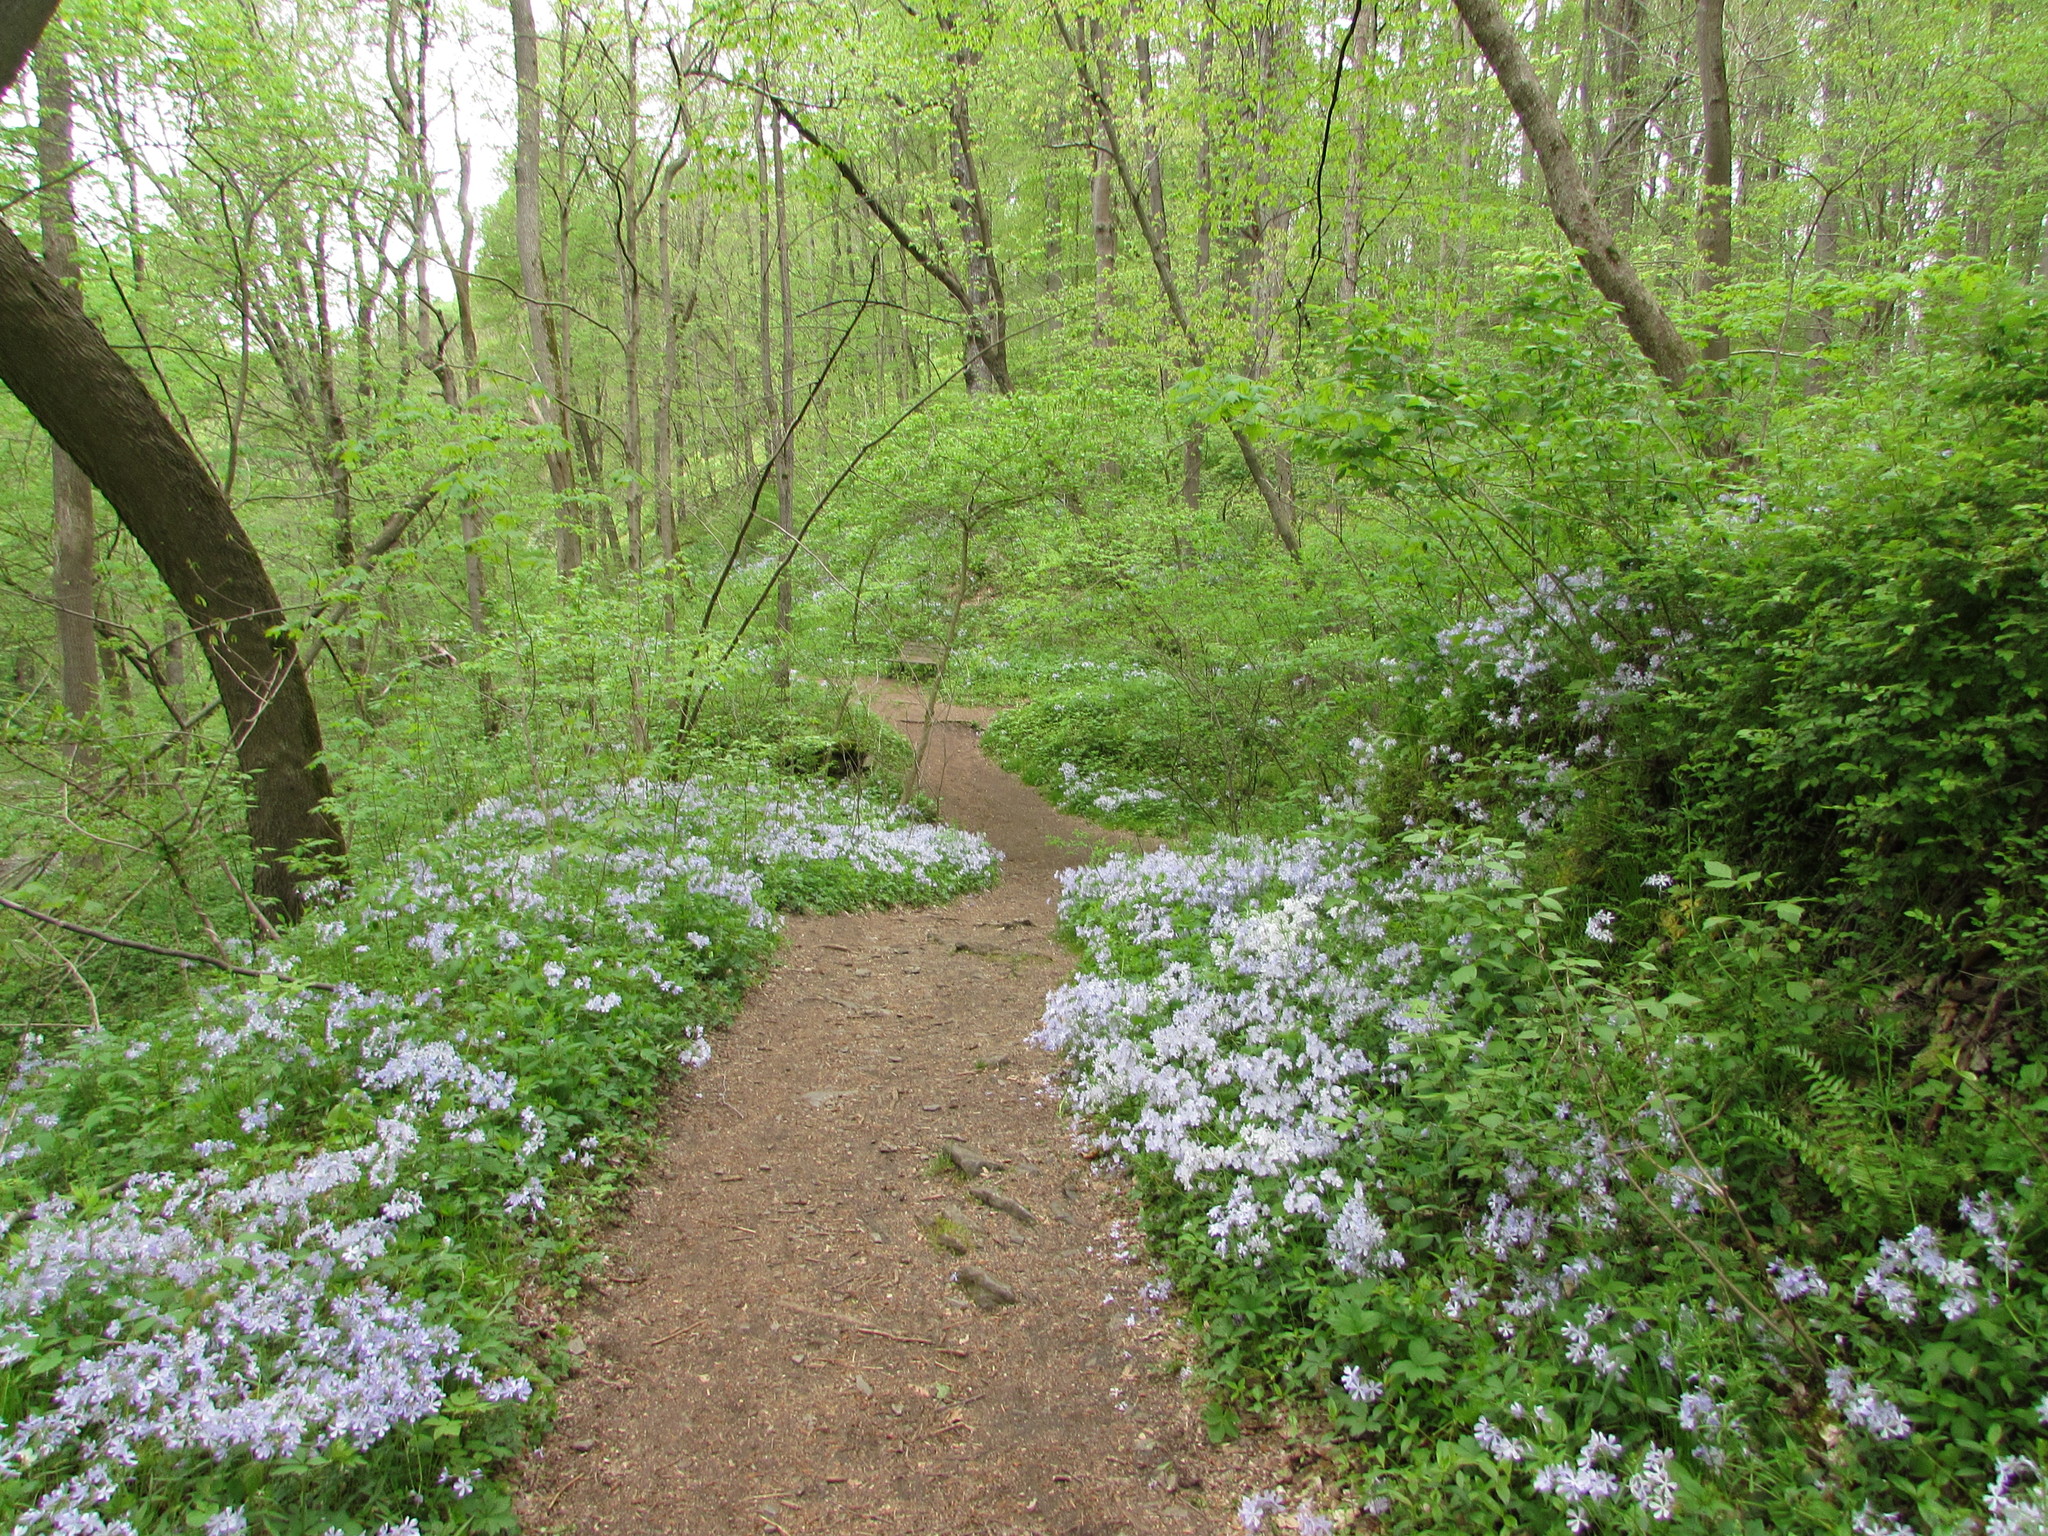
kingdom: Plantae
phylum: Tracheophyta
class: Magnoliopsida
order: Ericales
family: Polemoniaceae
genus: Phlox
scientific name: Phlox divaricata
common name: Blue phlox
